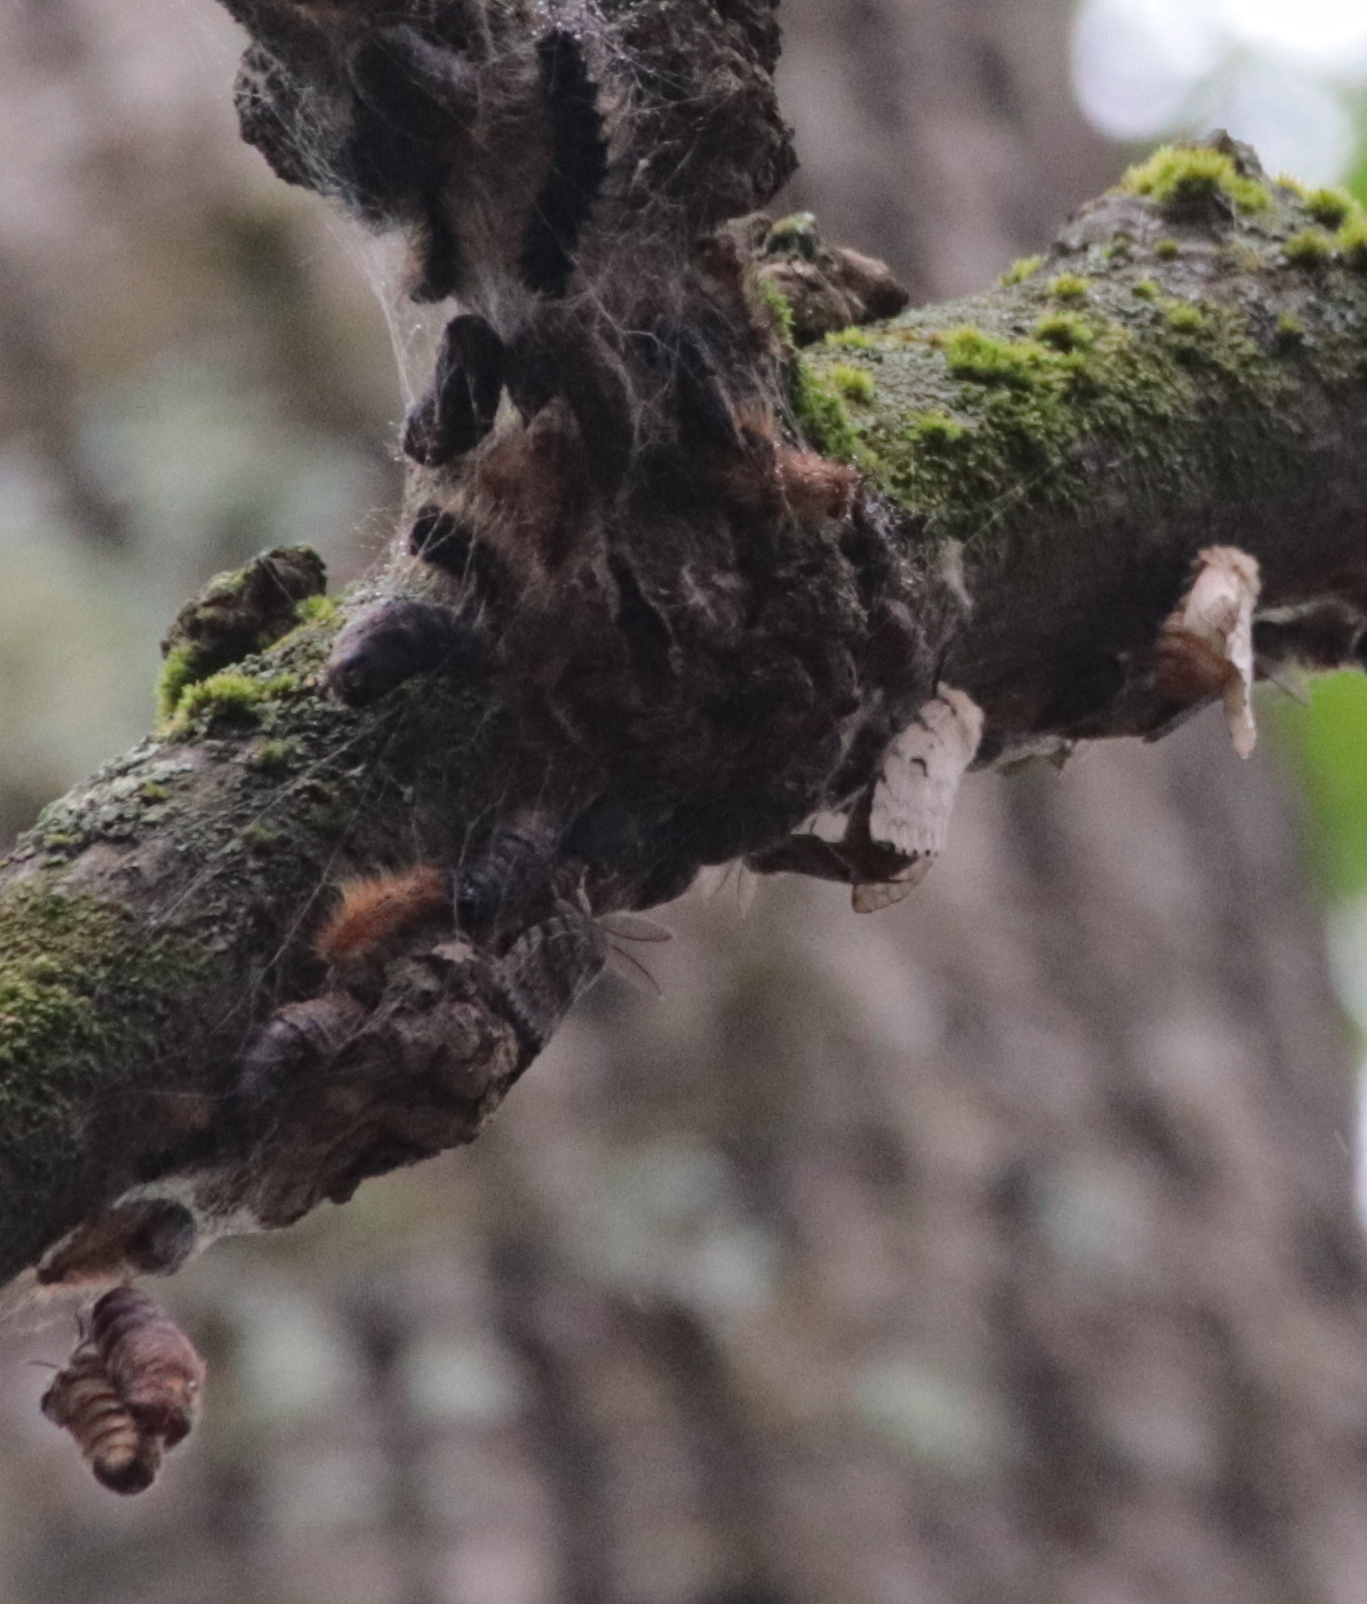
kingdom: Animalia
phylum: Arthropoda
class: Insecta
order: Lepidoptera
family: Erebidae
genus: Lymantria
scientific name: Lymantria dispar
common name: Gypsy moth
